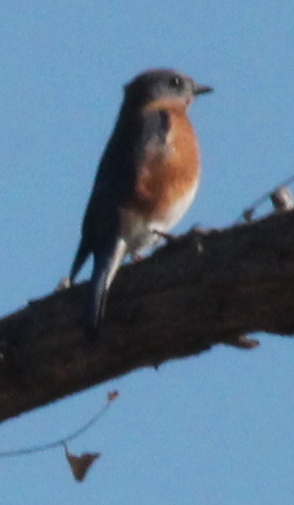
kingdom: Animalia
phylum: Chordata
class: Aves
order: Passeriformes
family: Turdidae
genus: Sialia
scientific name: Sialia sialis
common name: Eastern bluebird
